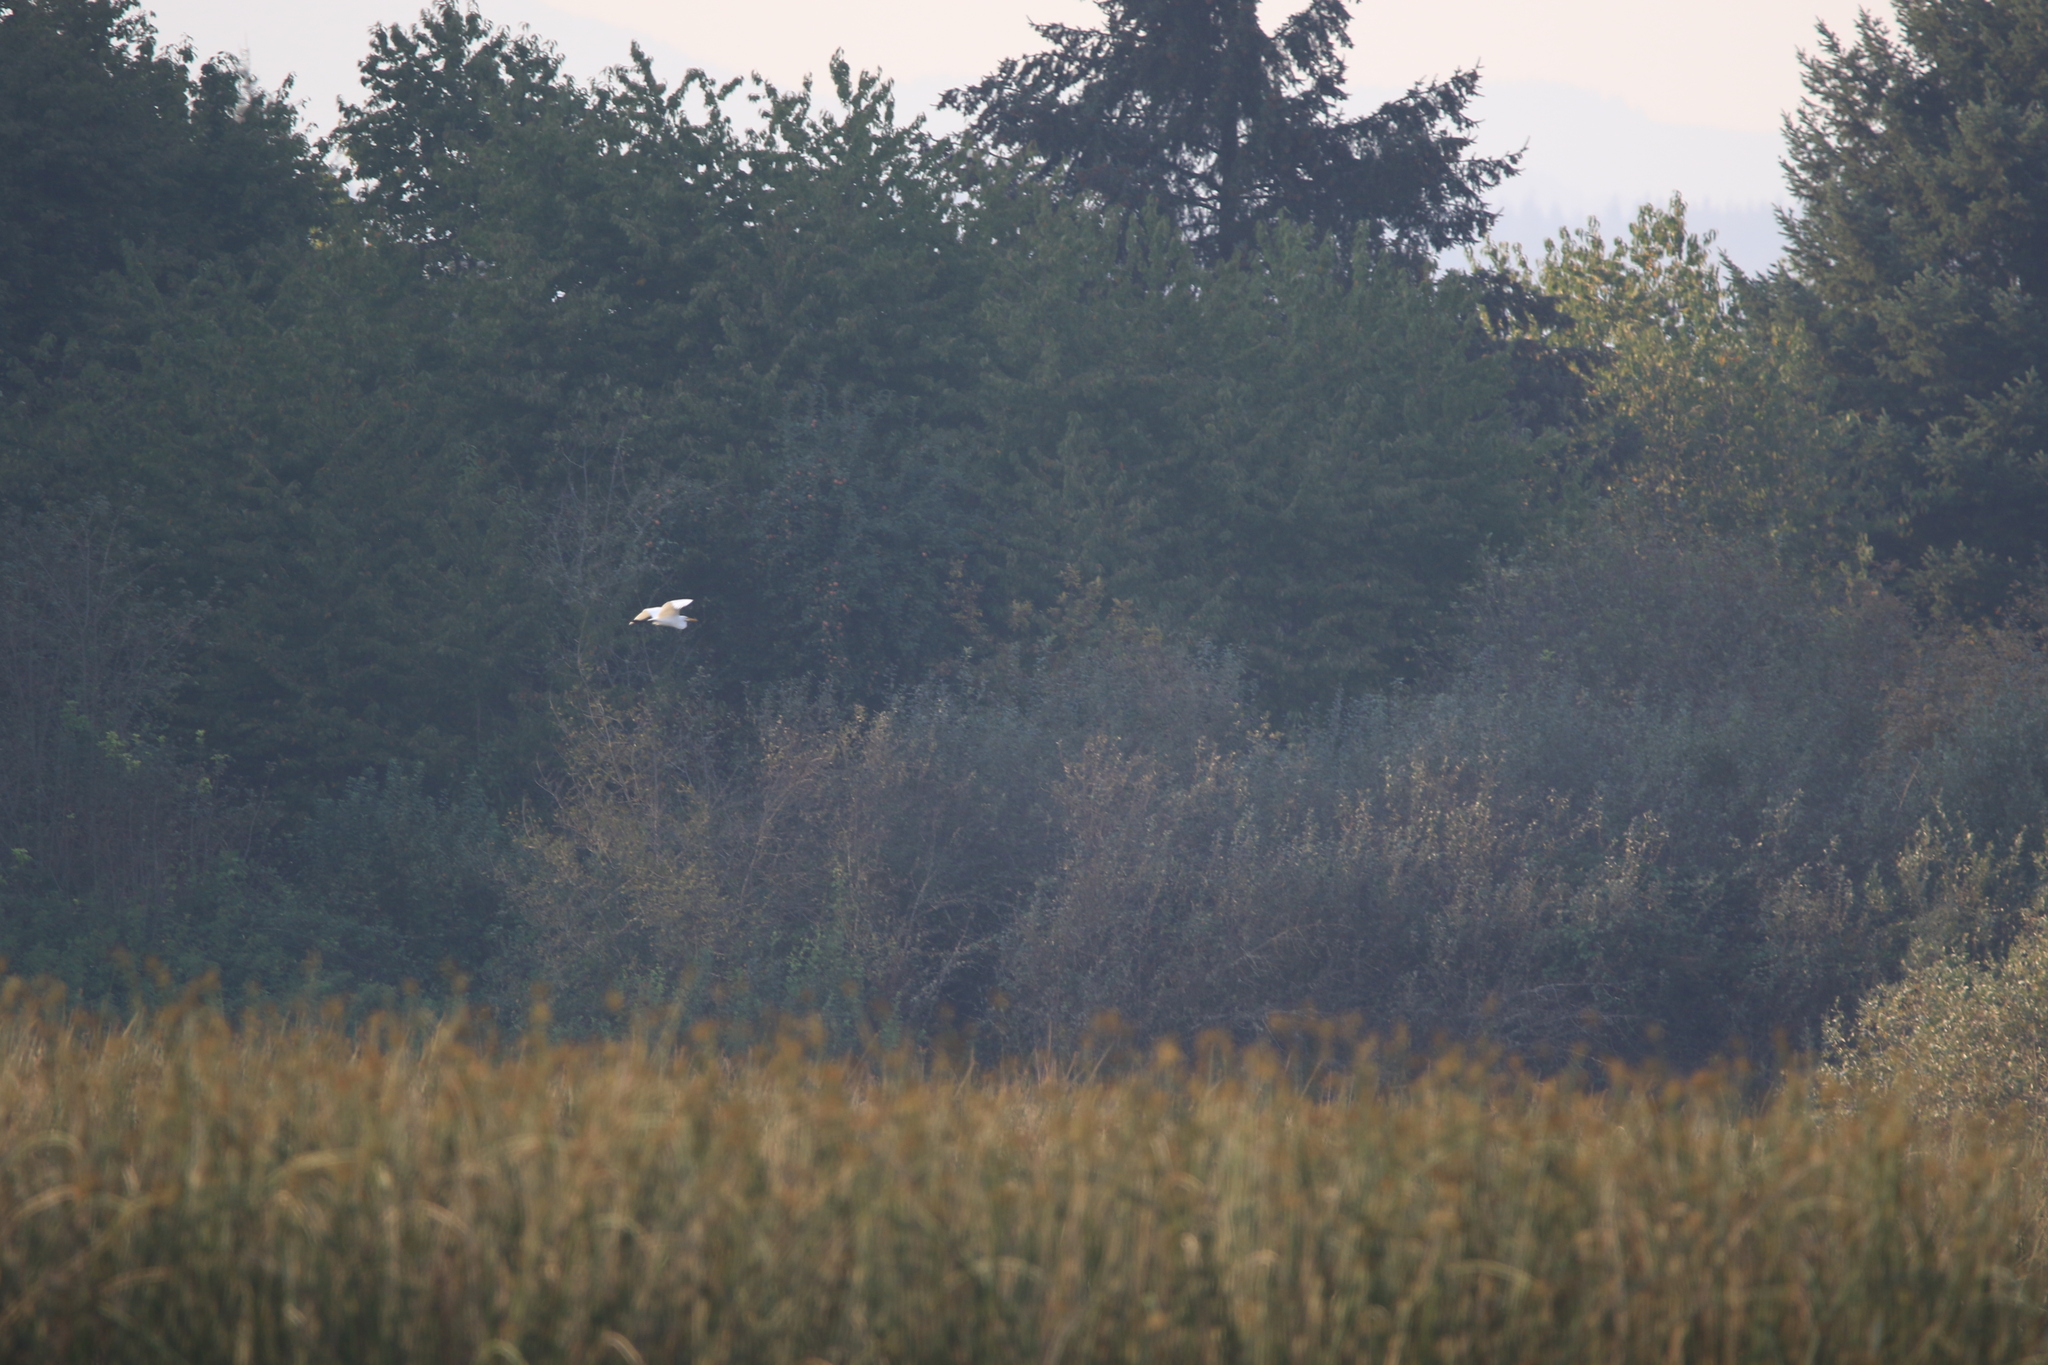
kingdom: Animalia
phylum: Chordata
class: Aves
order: Pelecaniformes
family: Ardeidae
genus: Ardea
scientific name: Ardea alba
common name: Great egret
